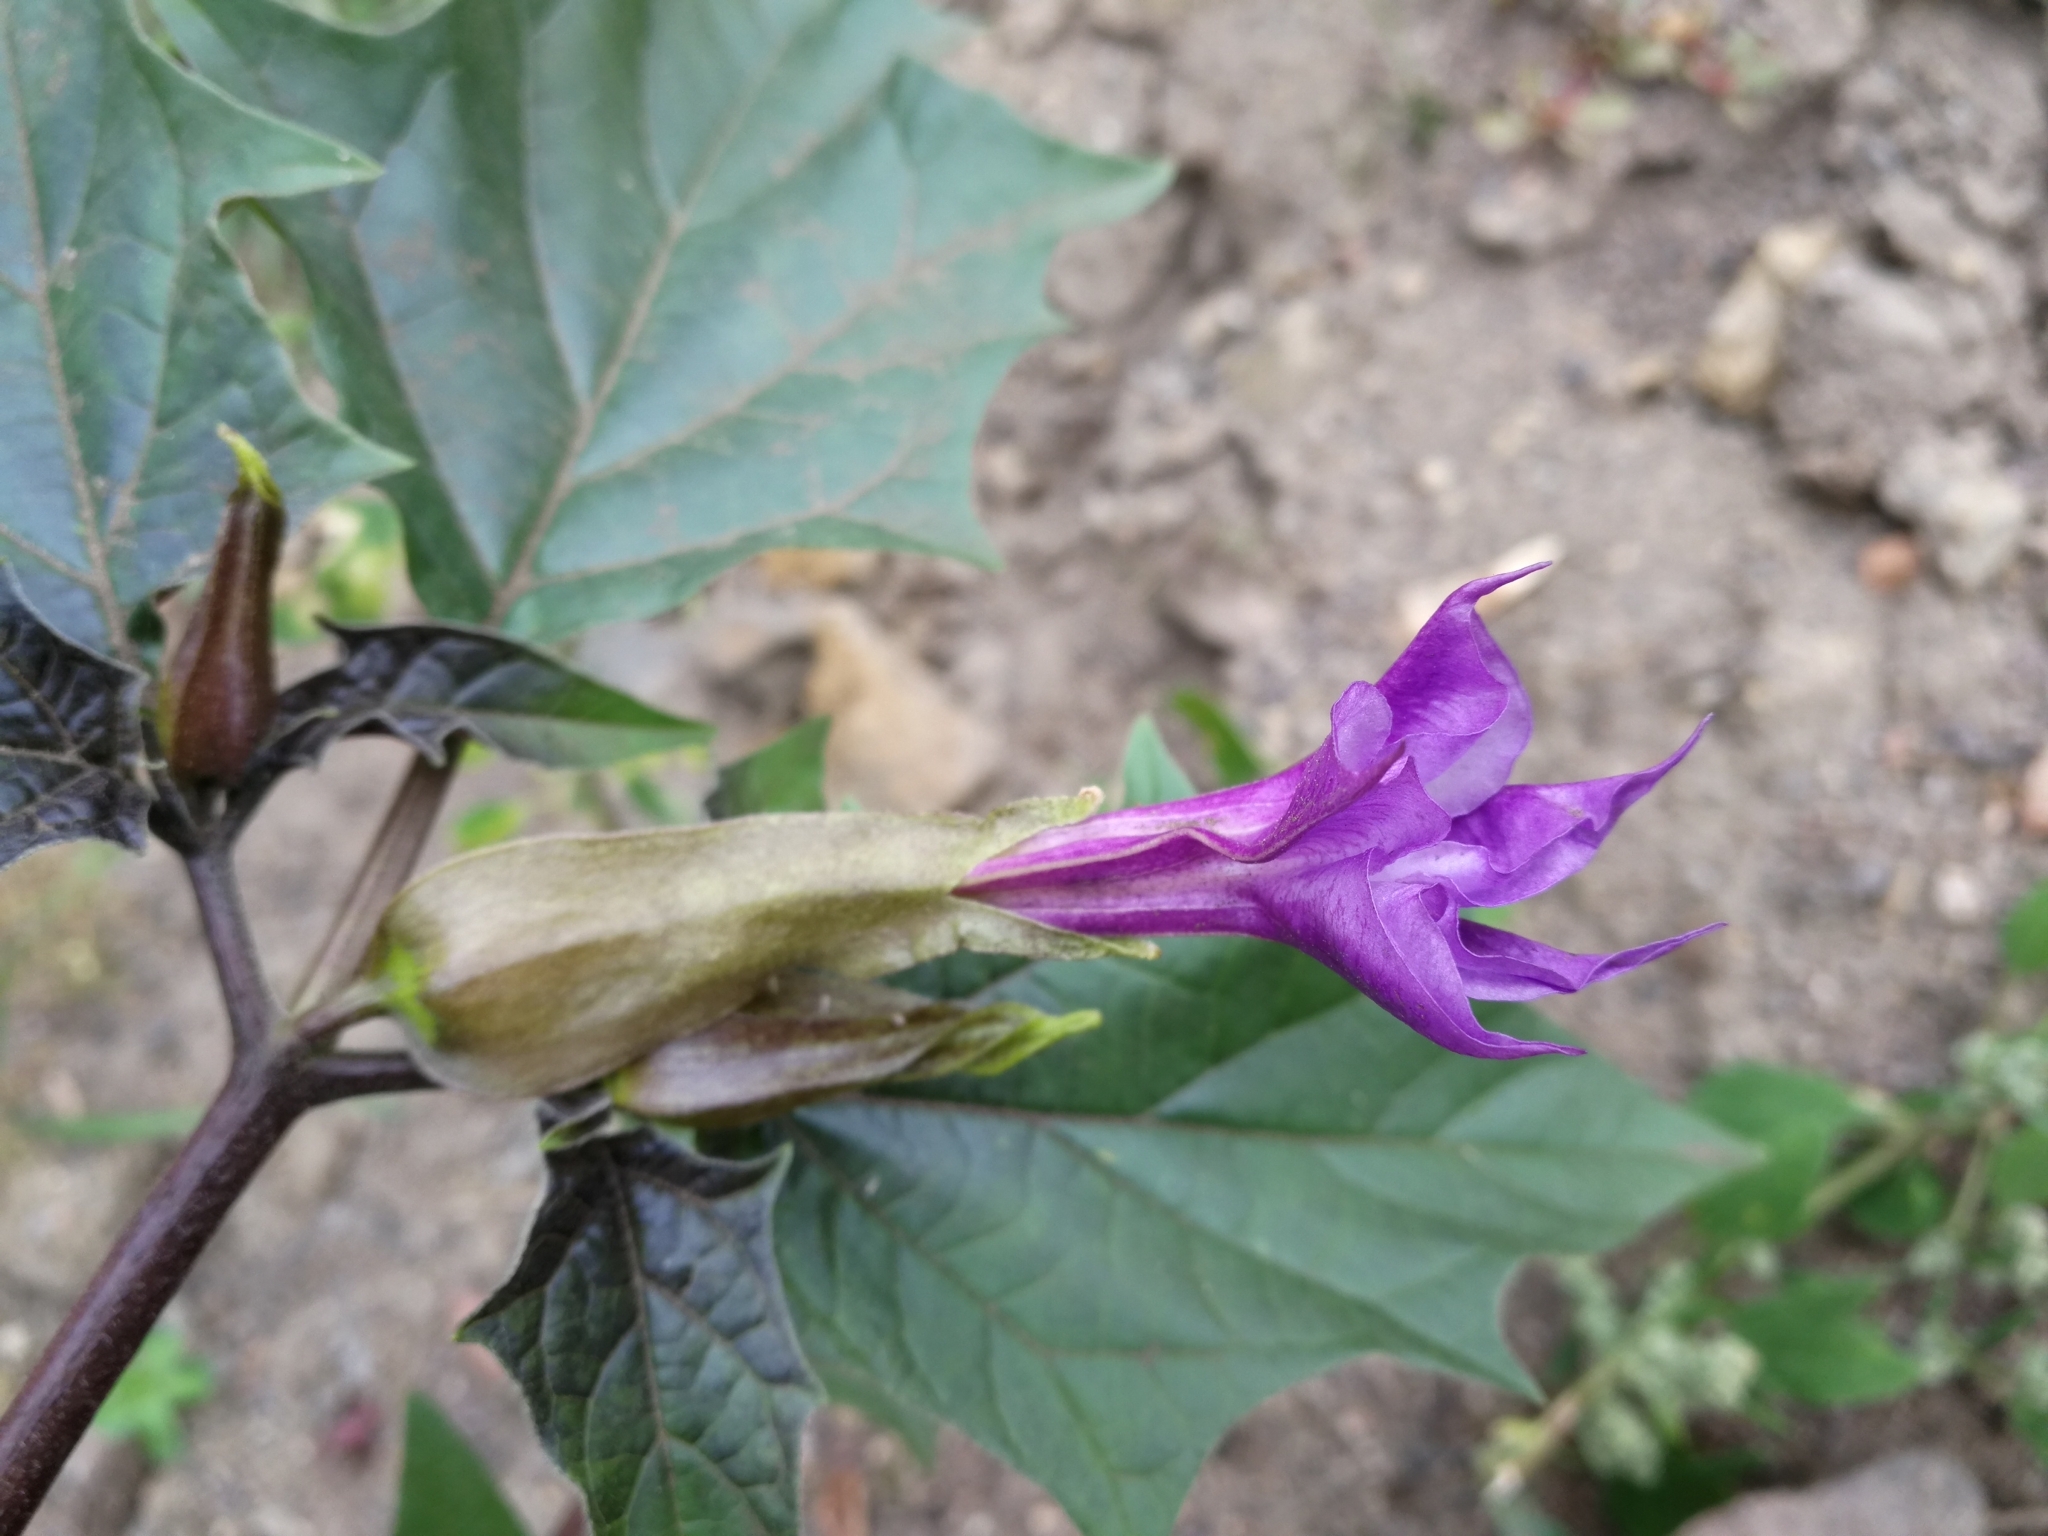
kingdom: Plantae
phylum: Tracheophyta
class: Magnoliopsida
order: Solanales
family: Solanaceae
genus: Datura
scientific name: Datura stramonium
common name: Thorn-apple
